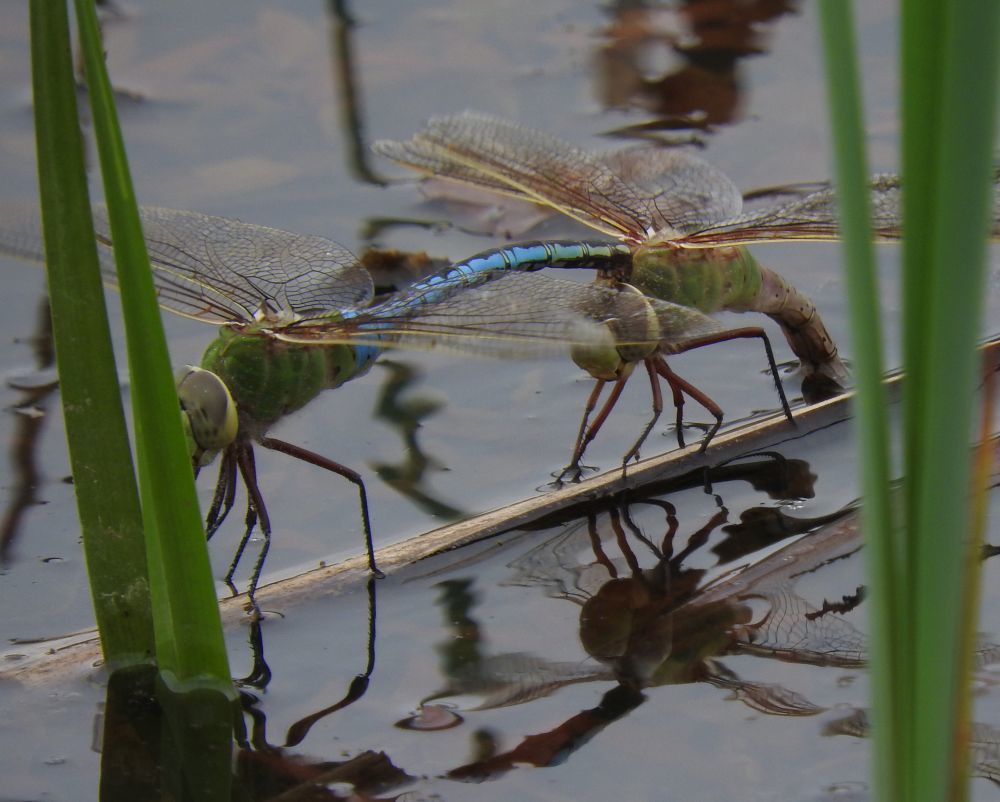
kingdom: Animalia
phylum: Arthropoda
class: Insecta
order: Odonata
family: Aeshnidae
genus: Anax
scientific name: Anax junius
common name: Common green darner
